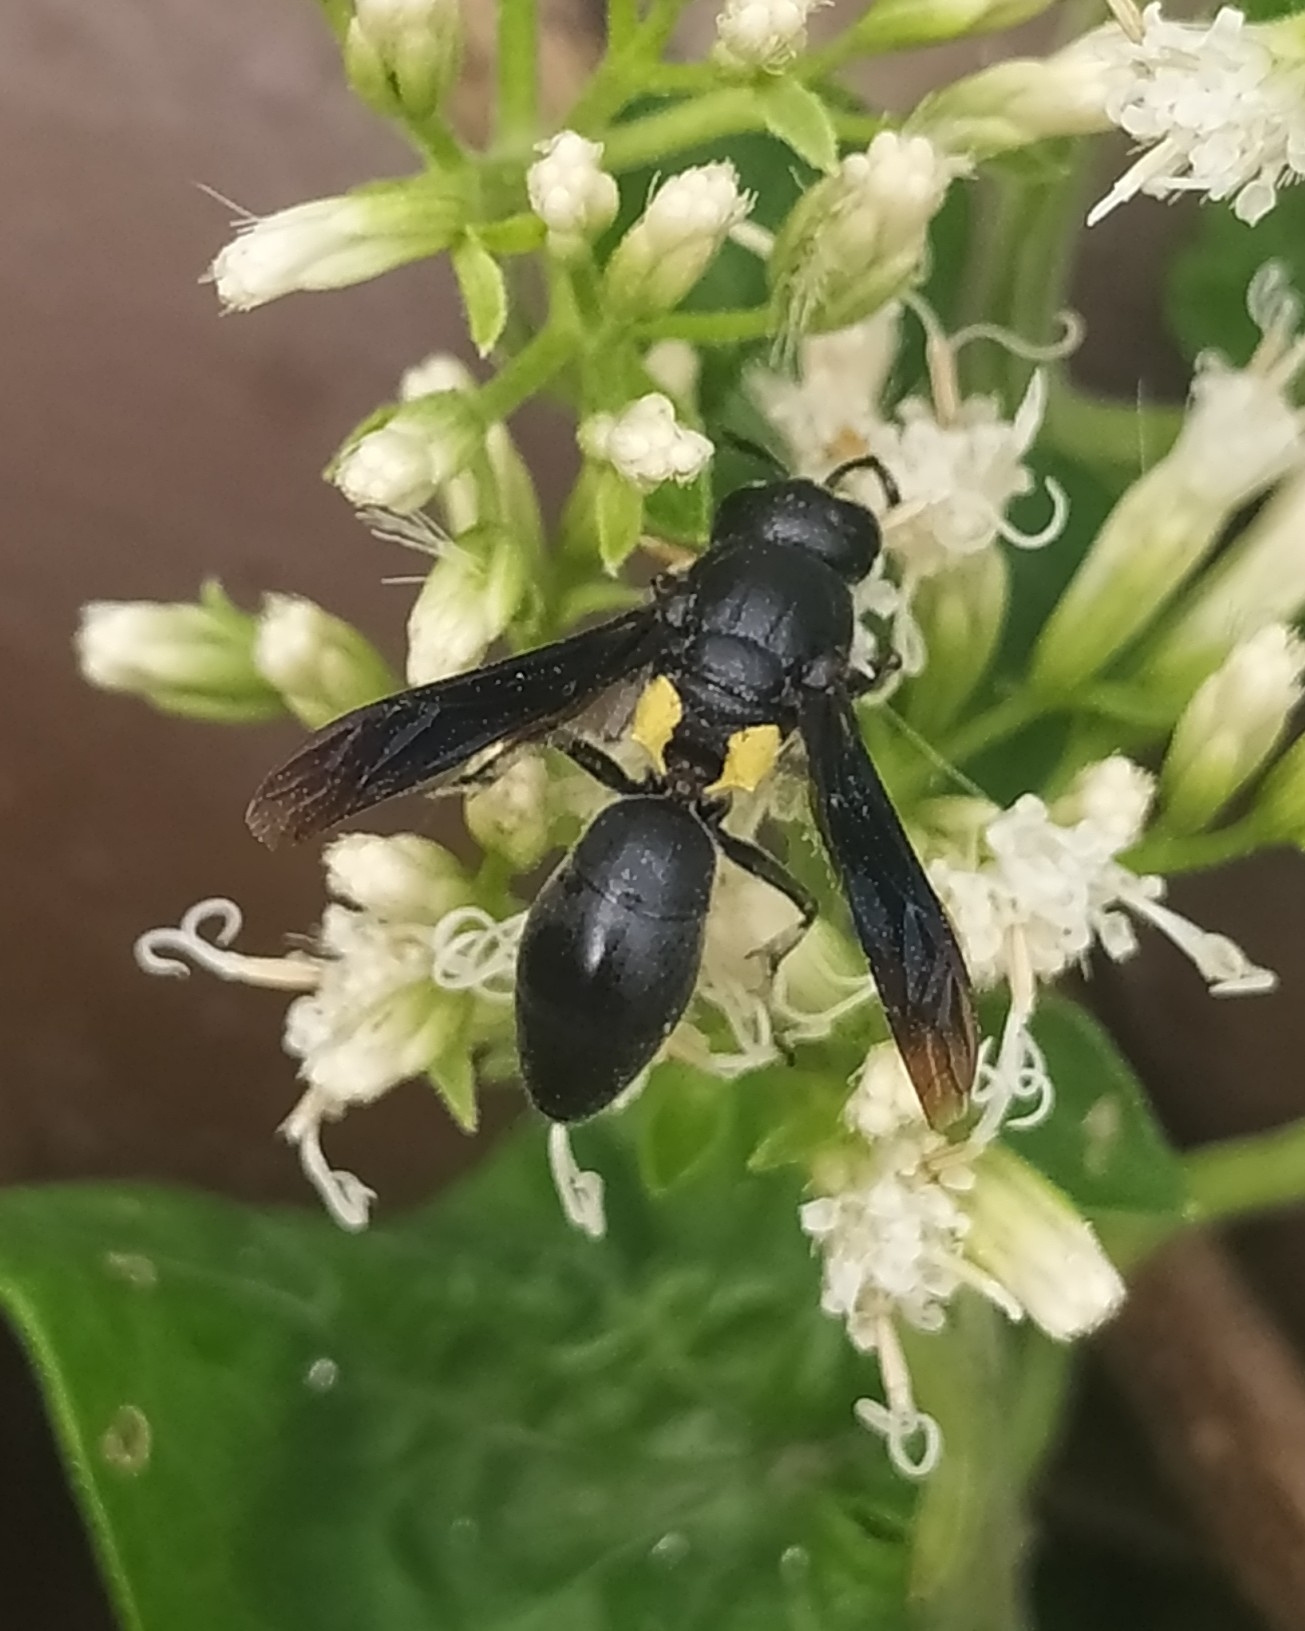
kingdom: Animalia
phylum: Arthropoda
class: Insecta
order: Hymenoptera
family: Eumenidae
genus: Monobia
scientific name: Monobia angulosa
